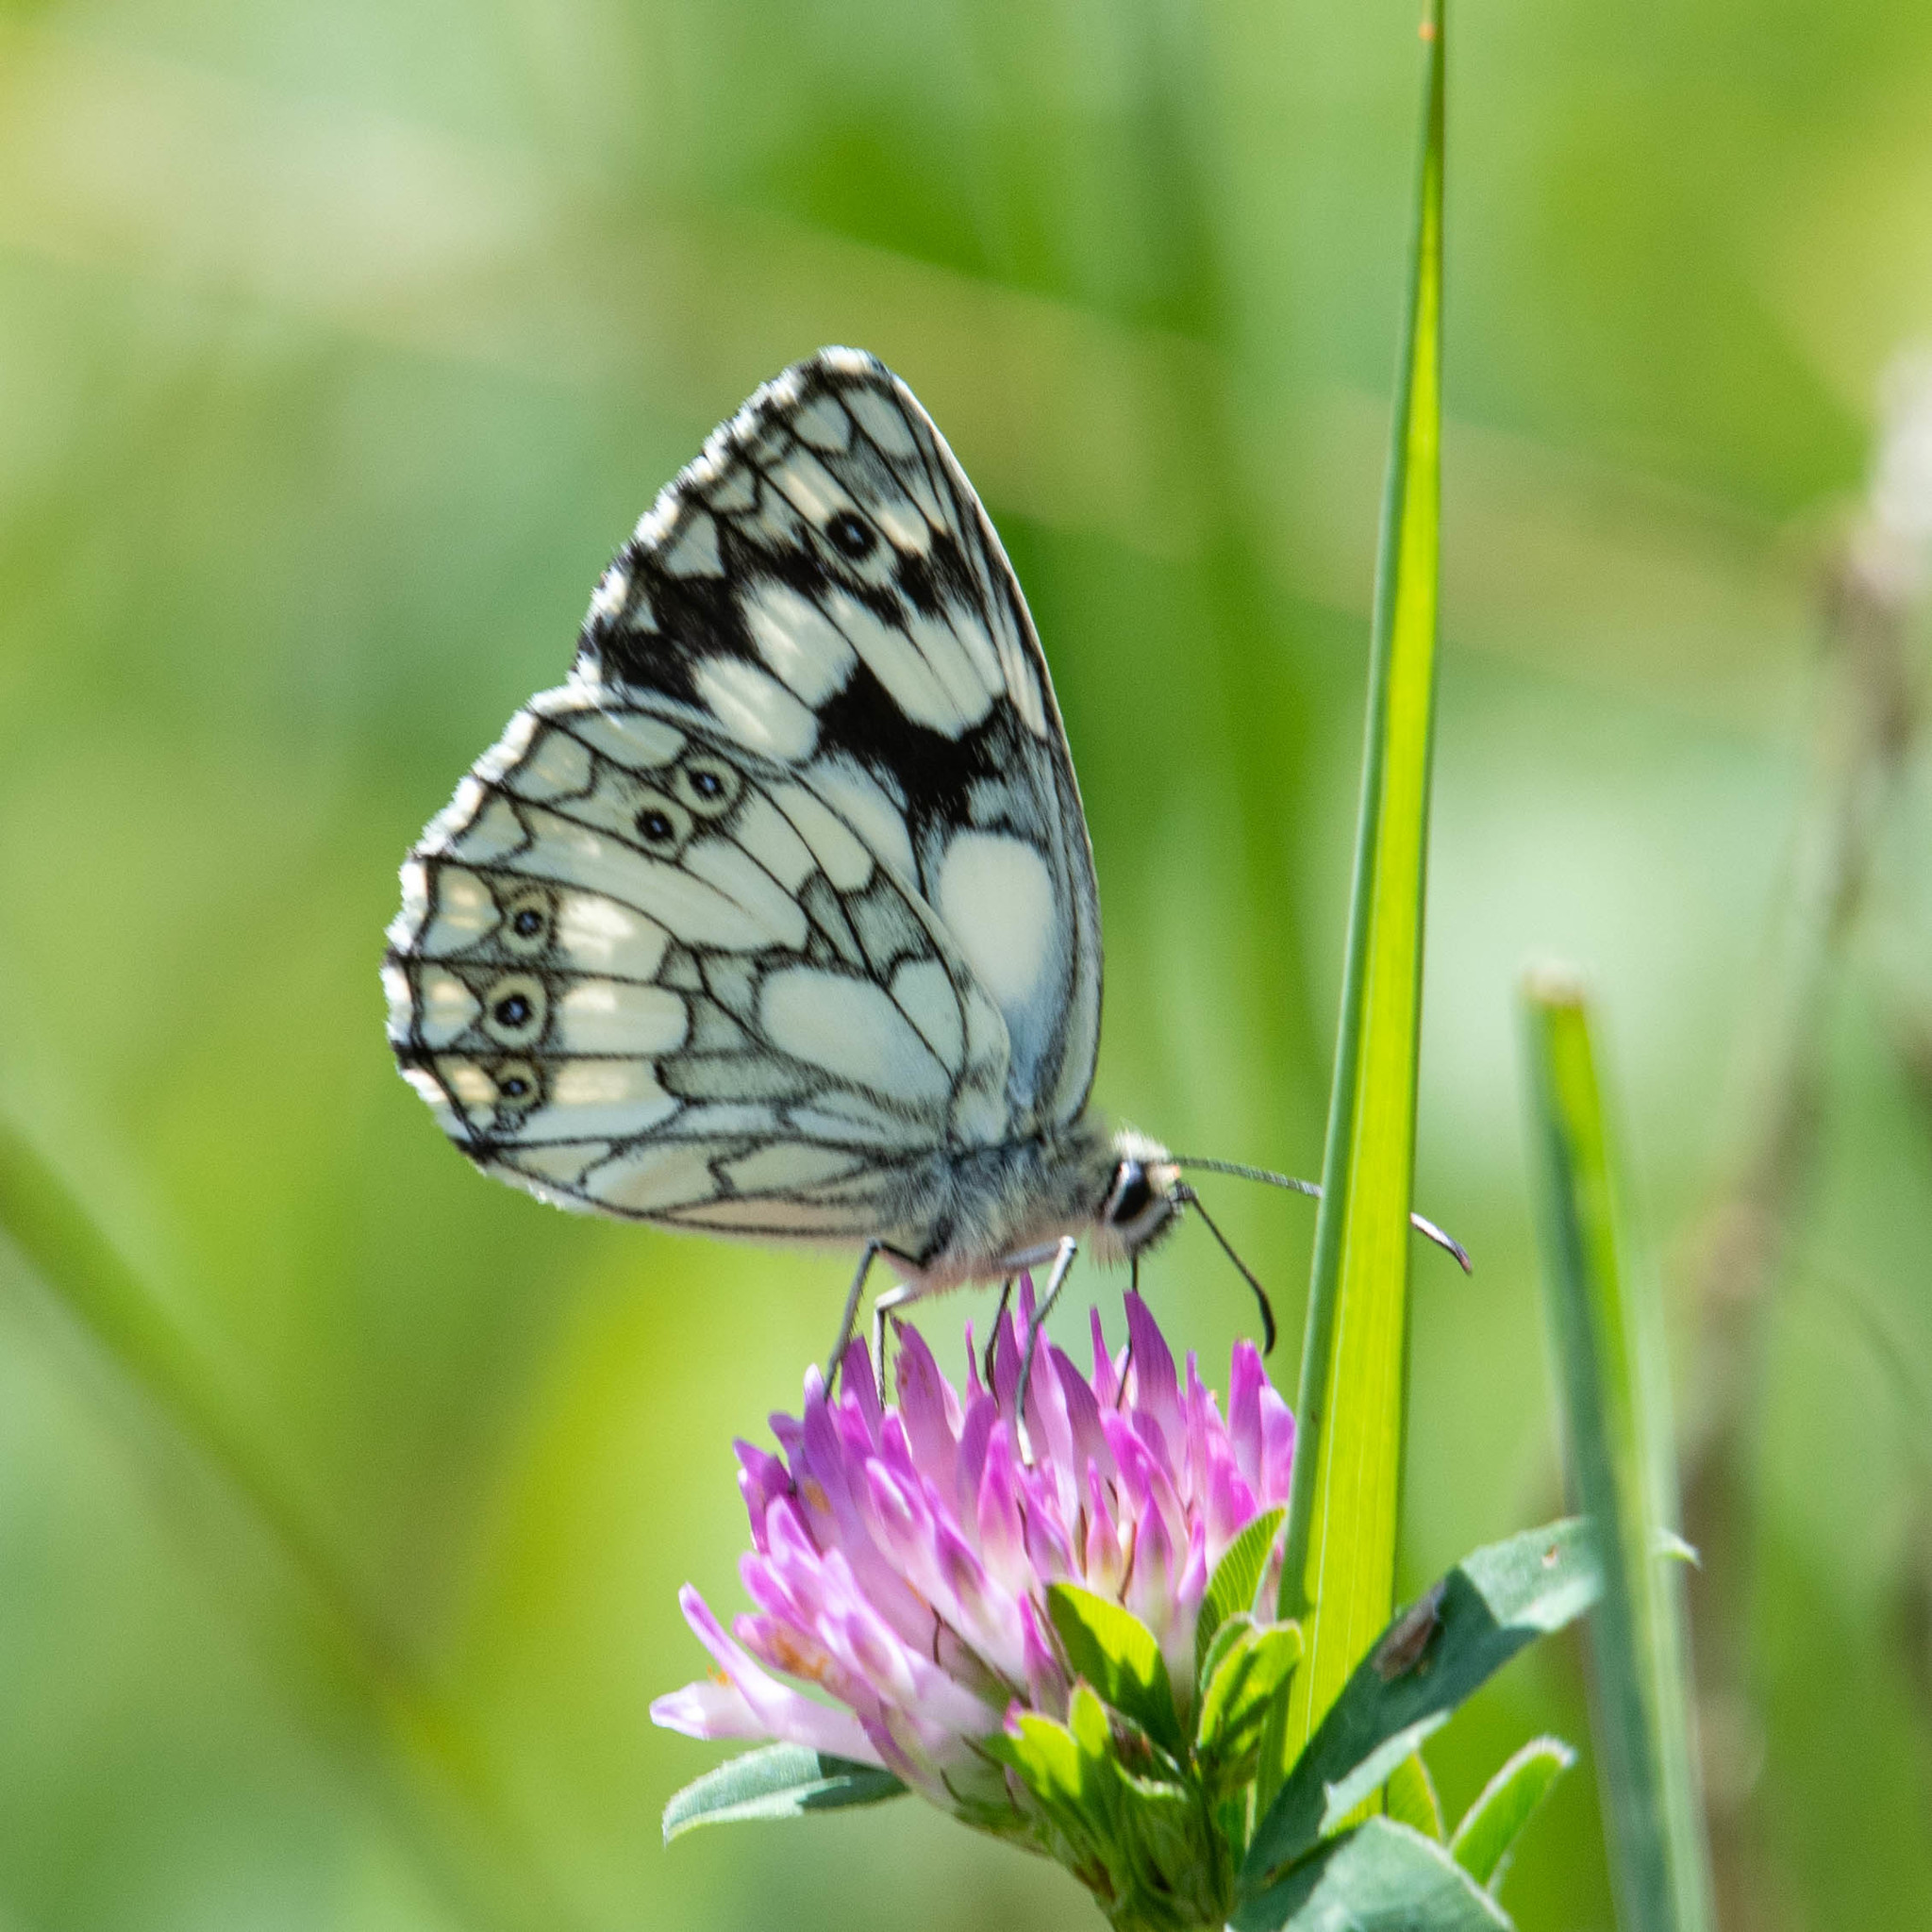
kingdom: Animalia
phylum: Arthropoda
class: Insecta
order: Lepidoptera
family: Nymphalidae
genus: Melanargia
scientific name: Melanargia galathea
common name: Marbled white
